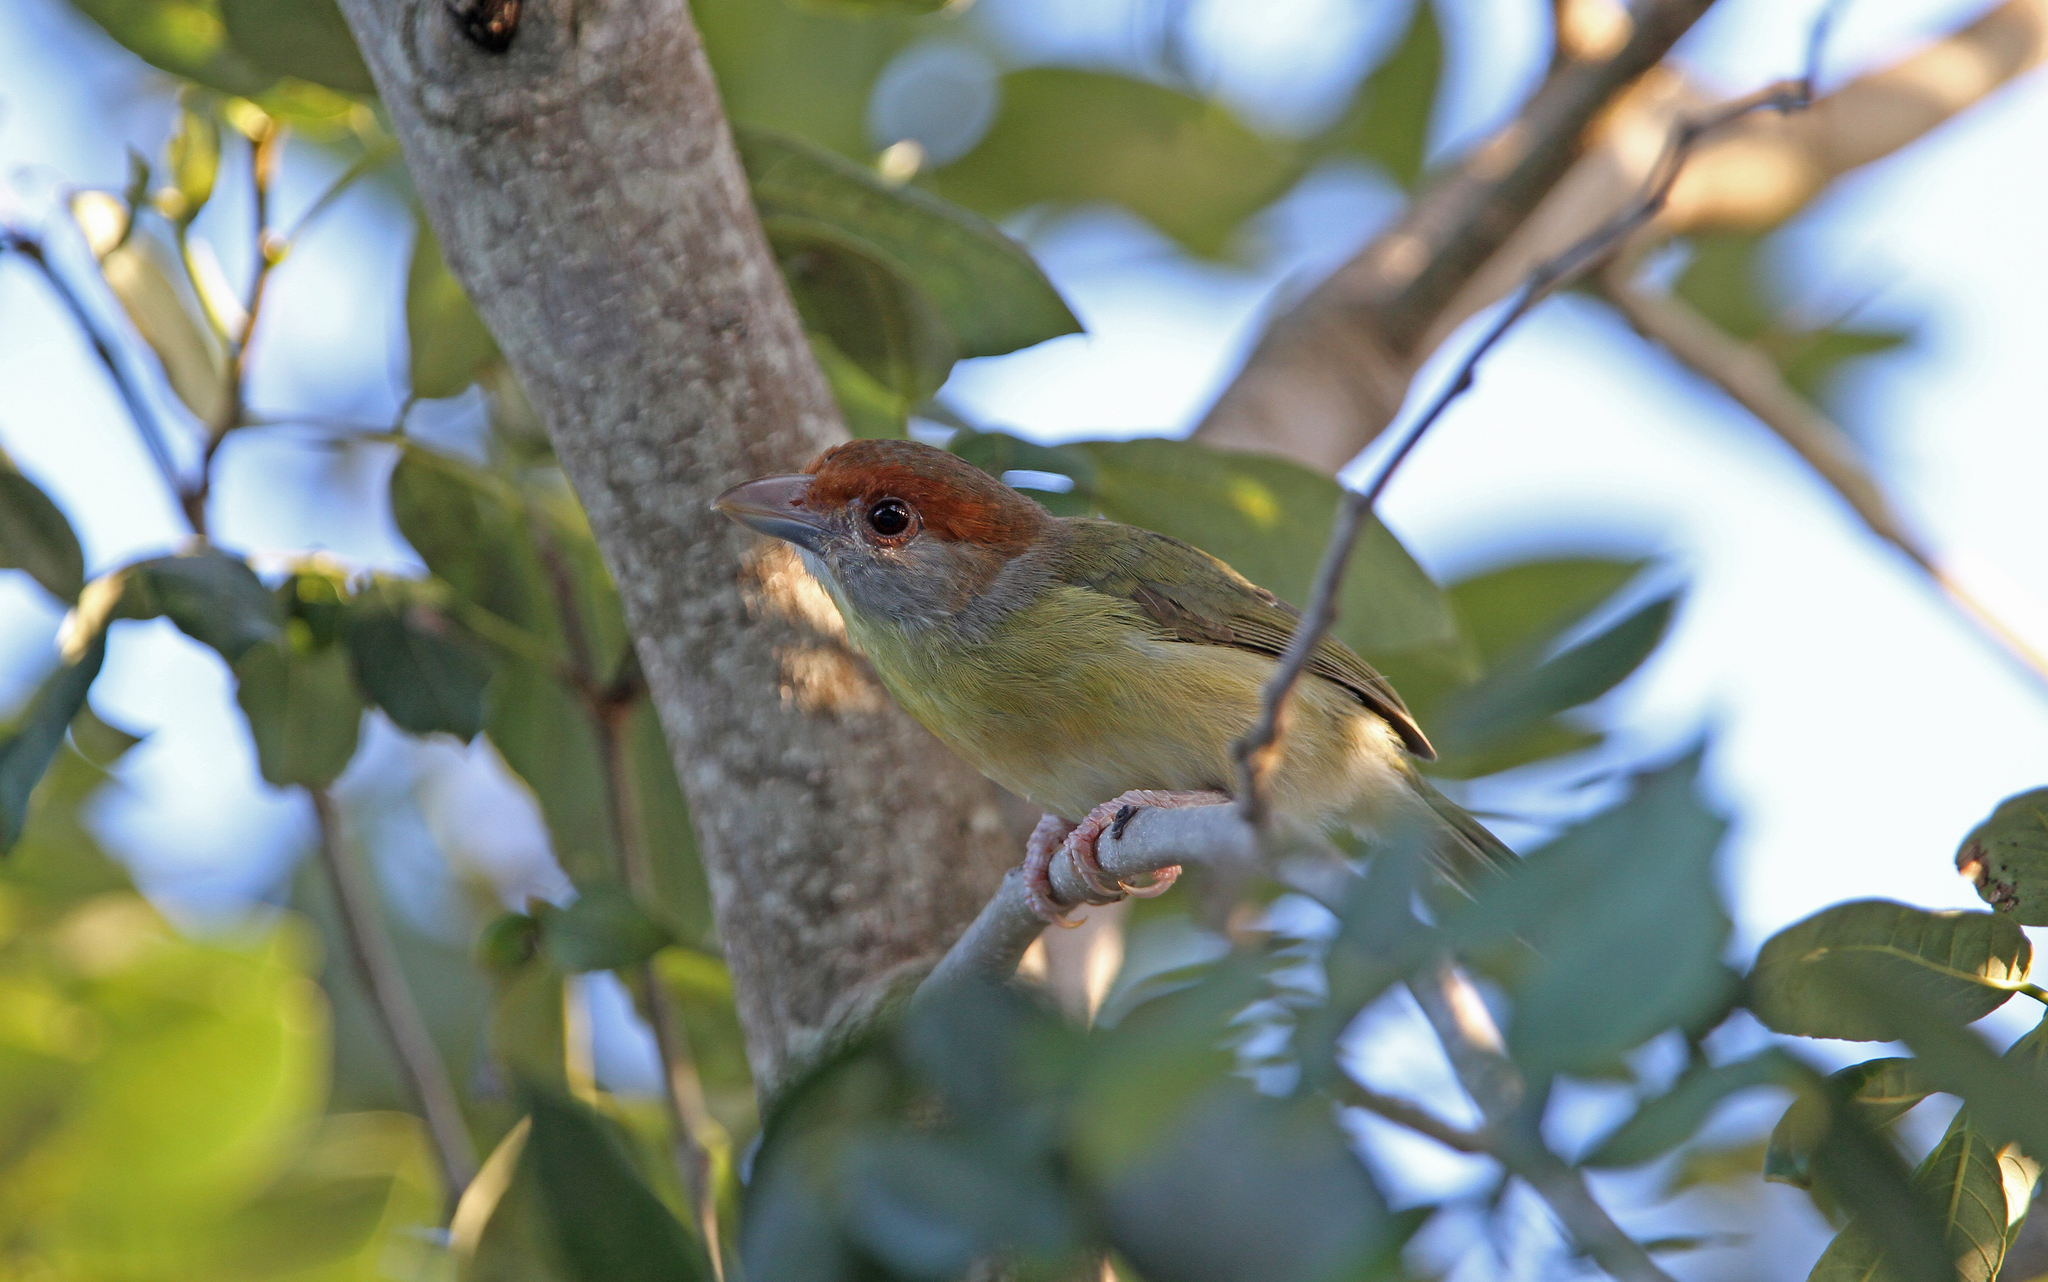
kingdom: Animalia
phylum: Chordata
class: Aves
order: Passeriformes
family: Vireonidae
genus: Cyclarhis
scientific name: Cyclarhis gujanensis
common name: Rufous-browed peppershrike
